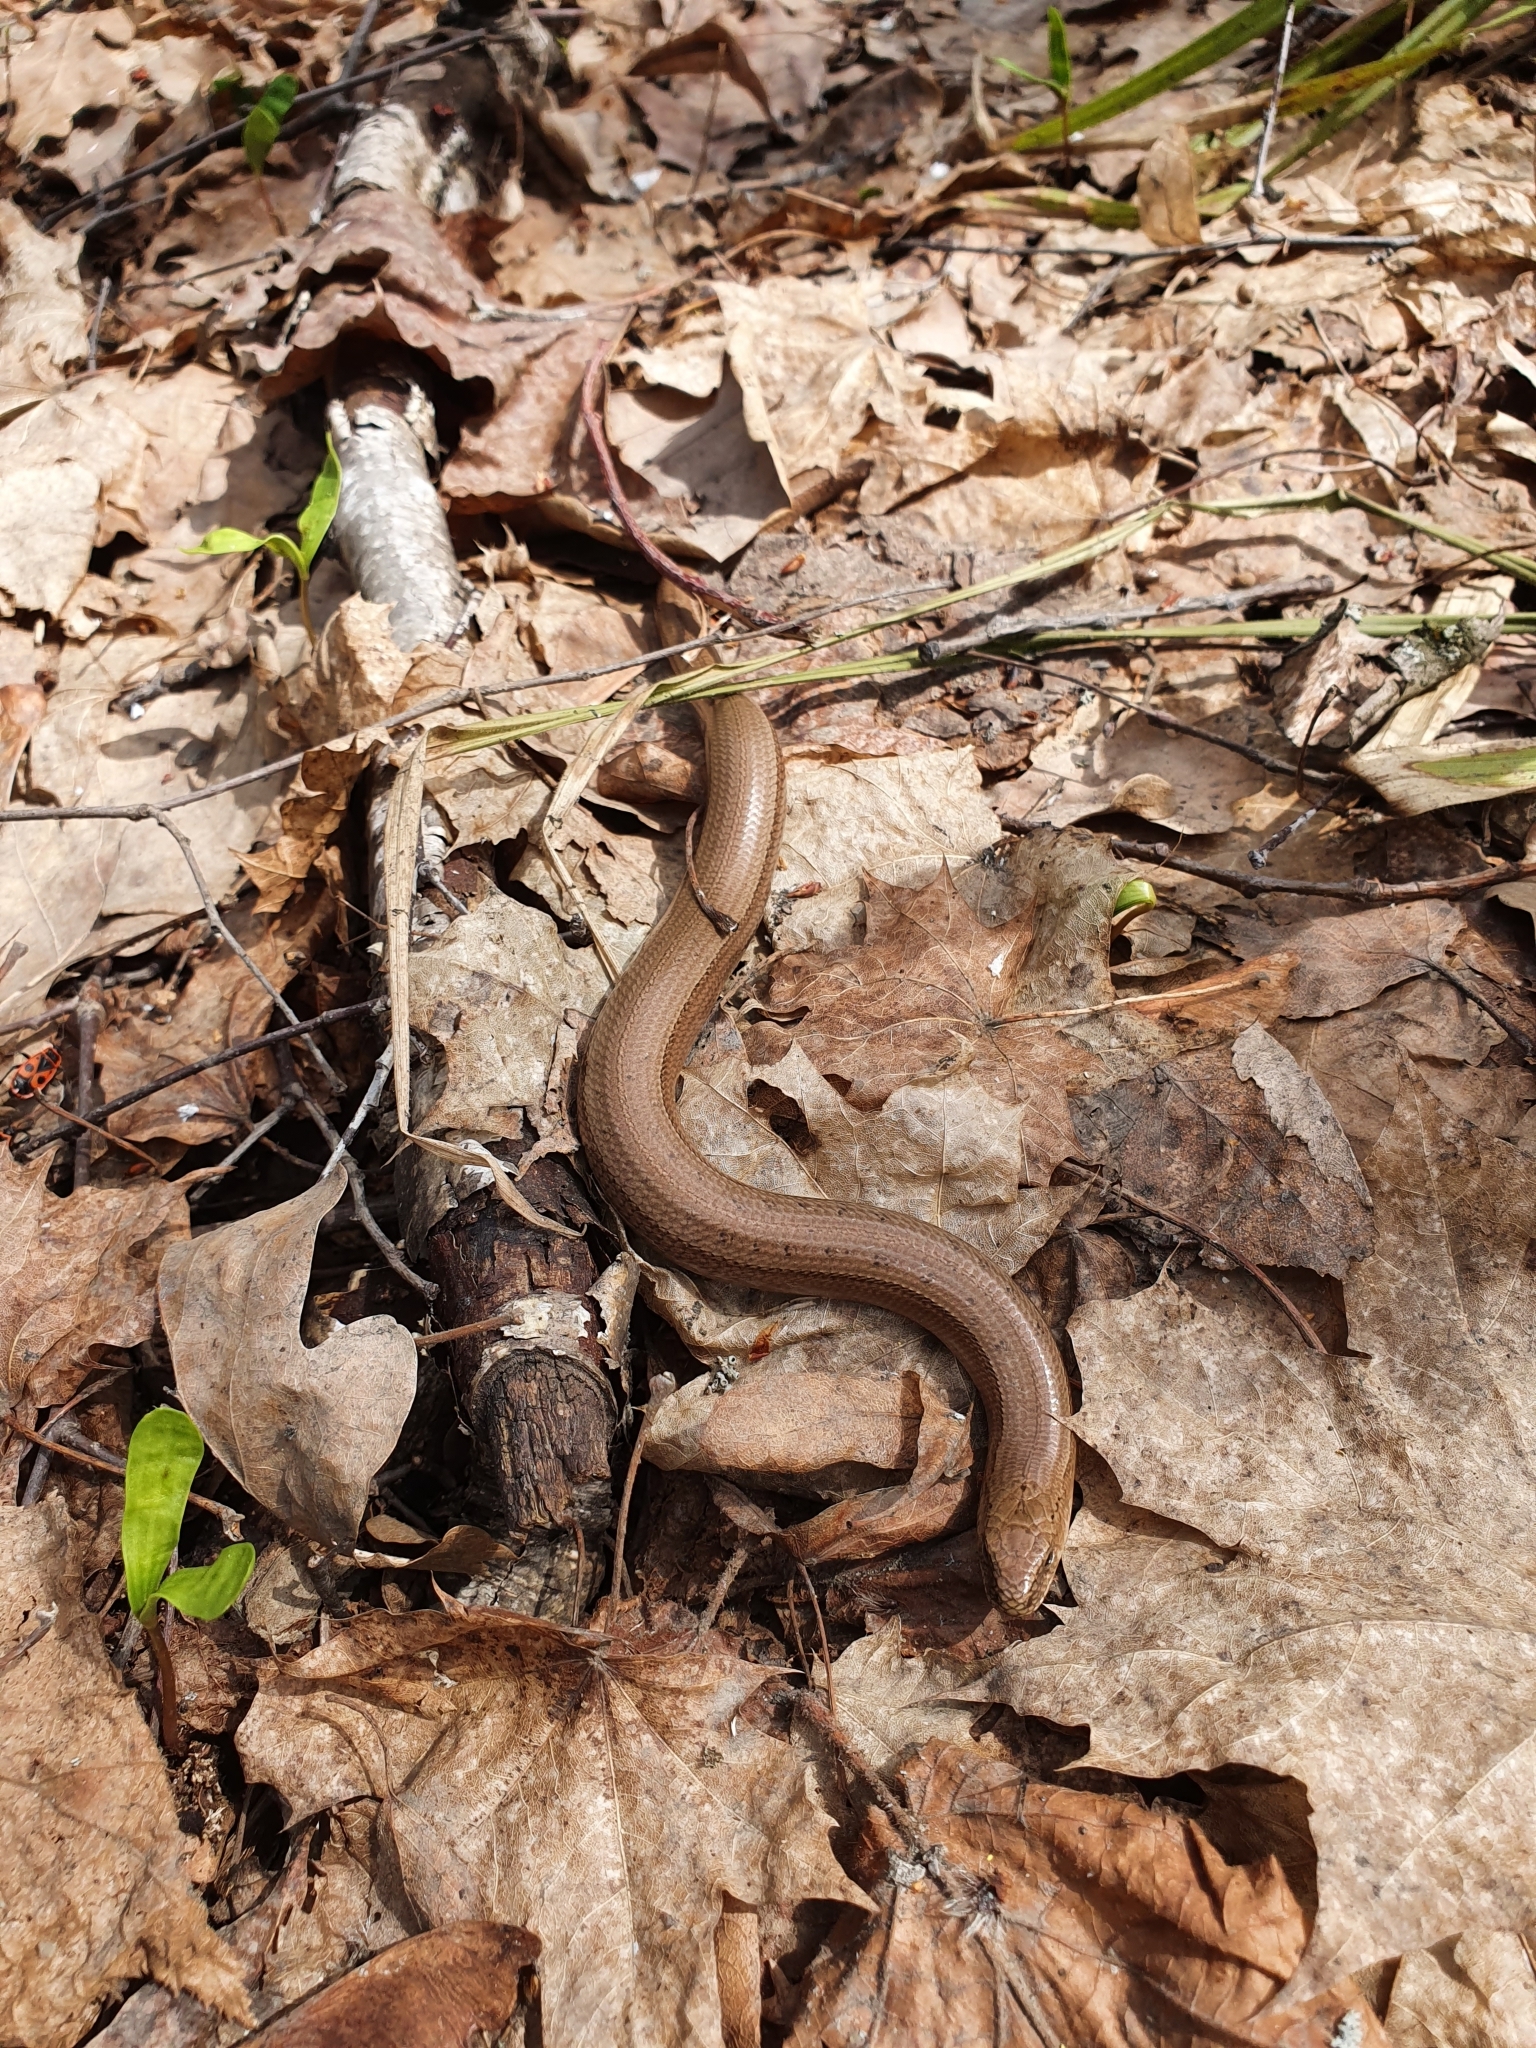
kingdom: Animalia
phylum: Chordata
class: Squamata
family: Anguidae
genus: Anguis
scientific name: Anguis colchica
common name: Slow worm
